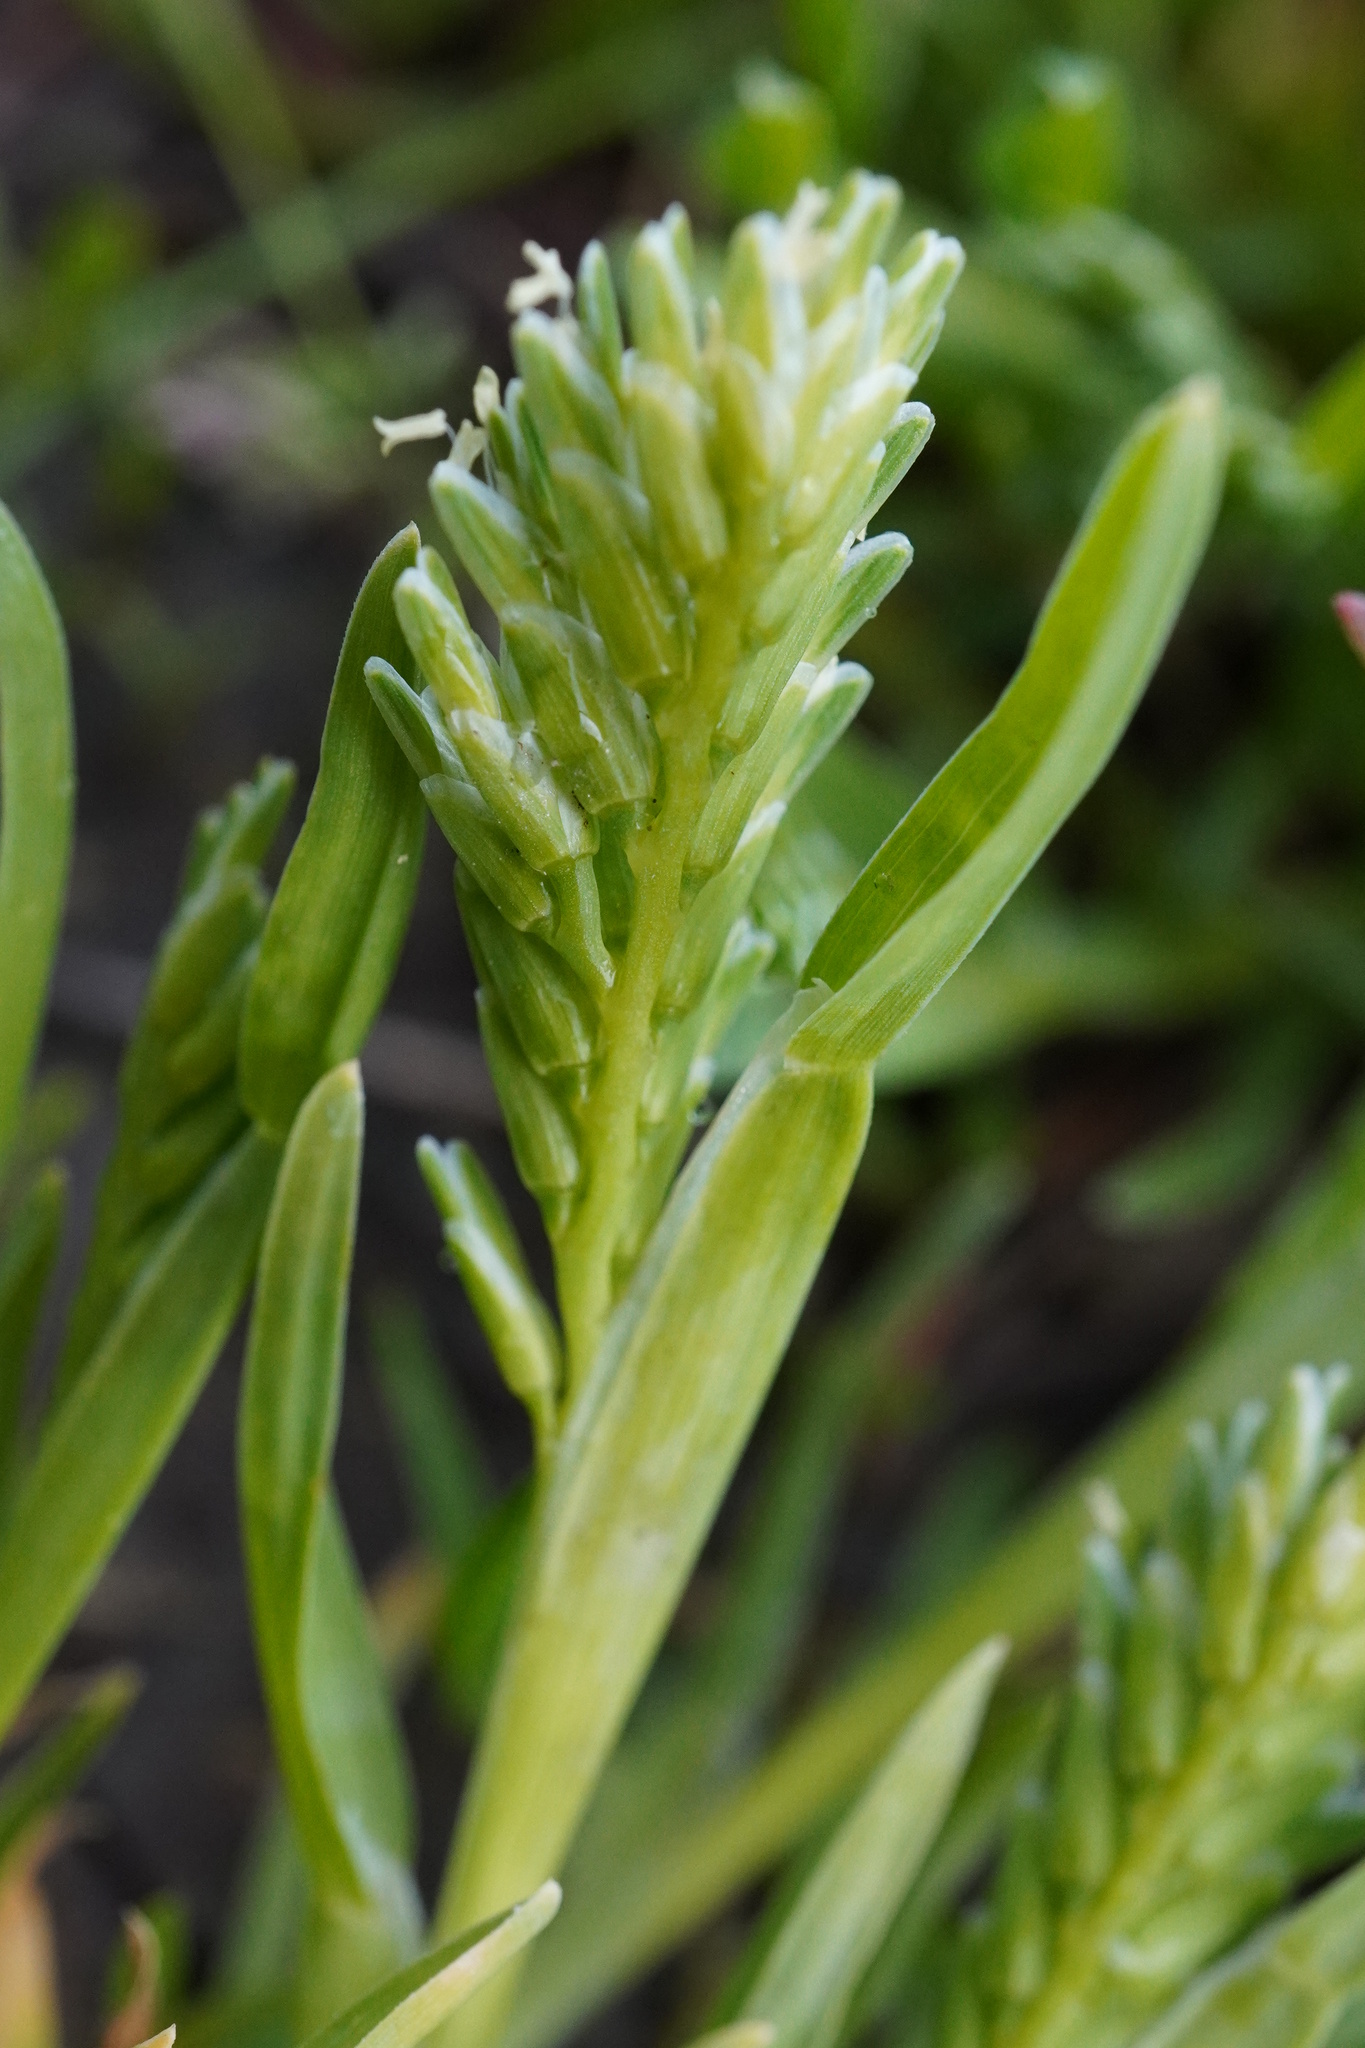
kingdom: Plantae
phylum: Tracheophyta
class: Liliopsida
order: Poales
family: Poaceae
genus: Sclerochloa
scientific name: Sclerochloa dura
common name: Common hardgrass
